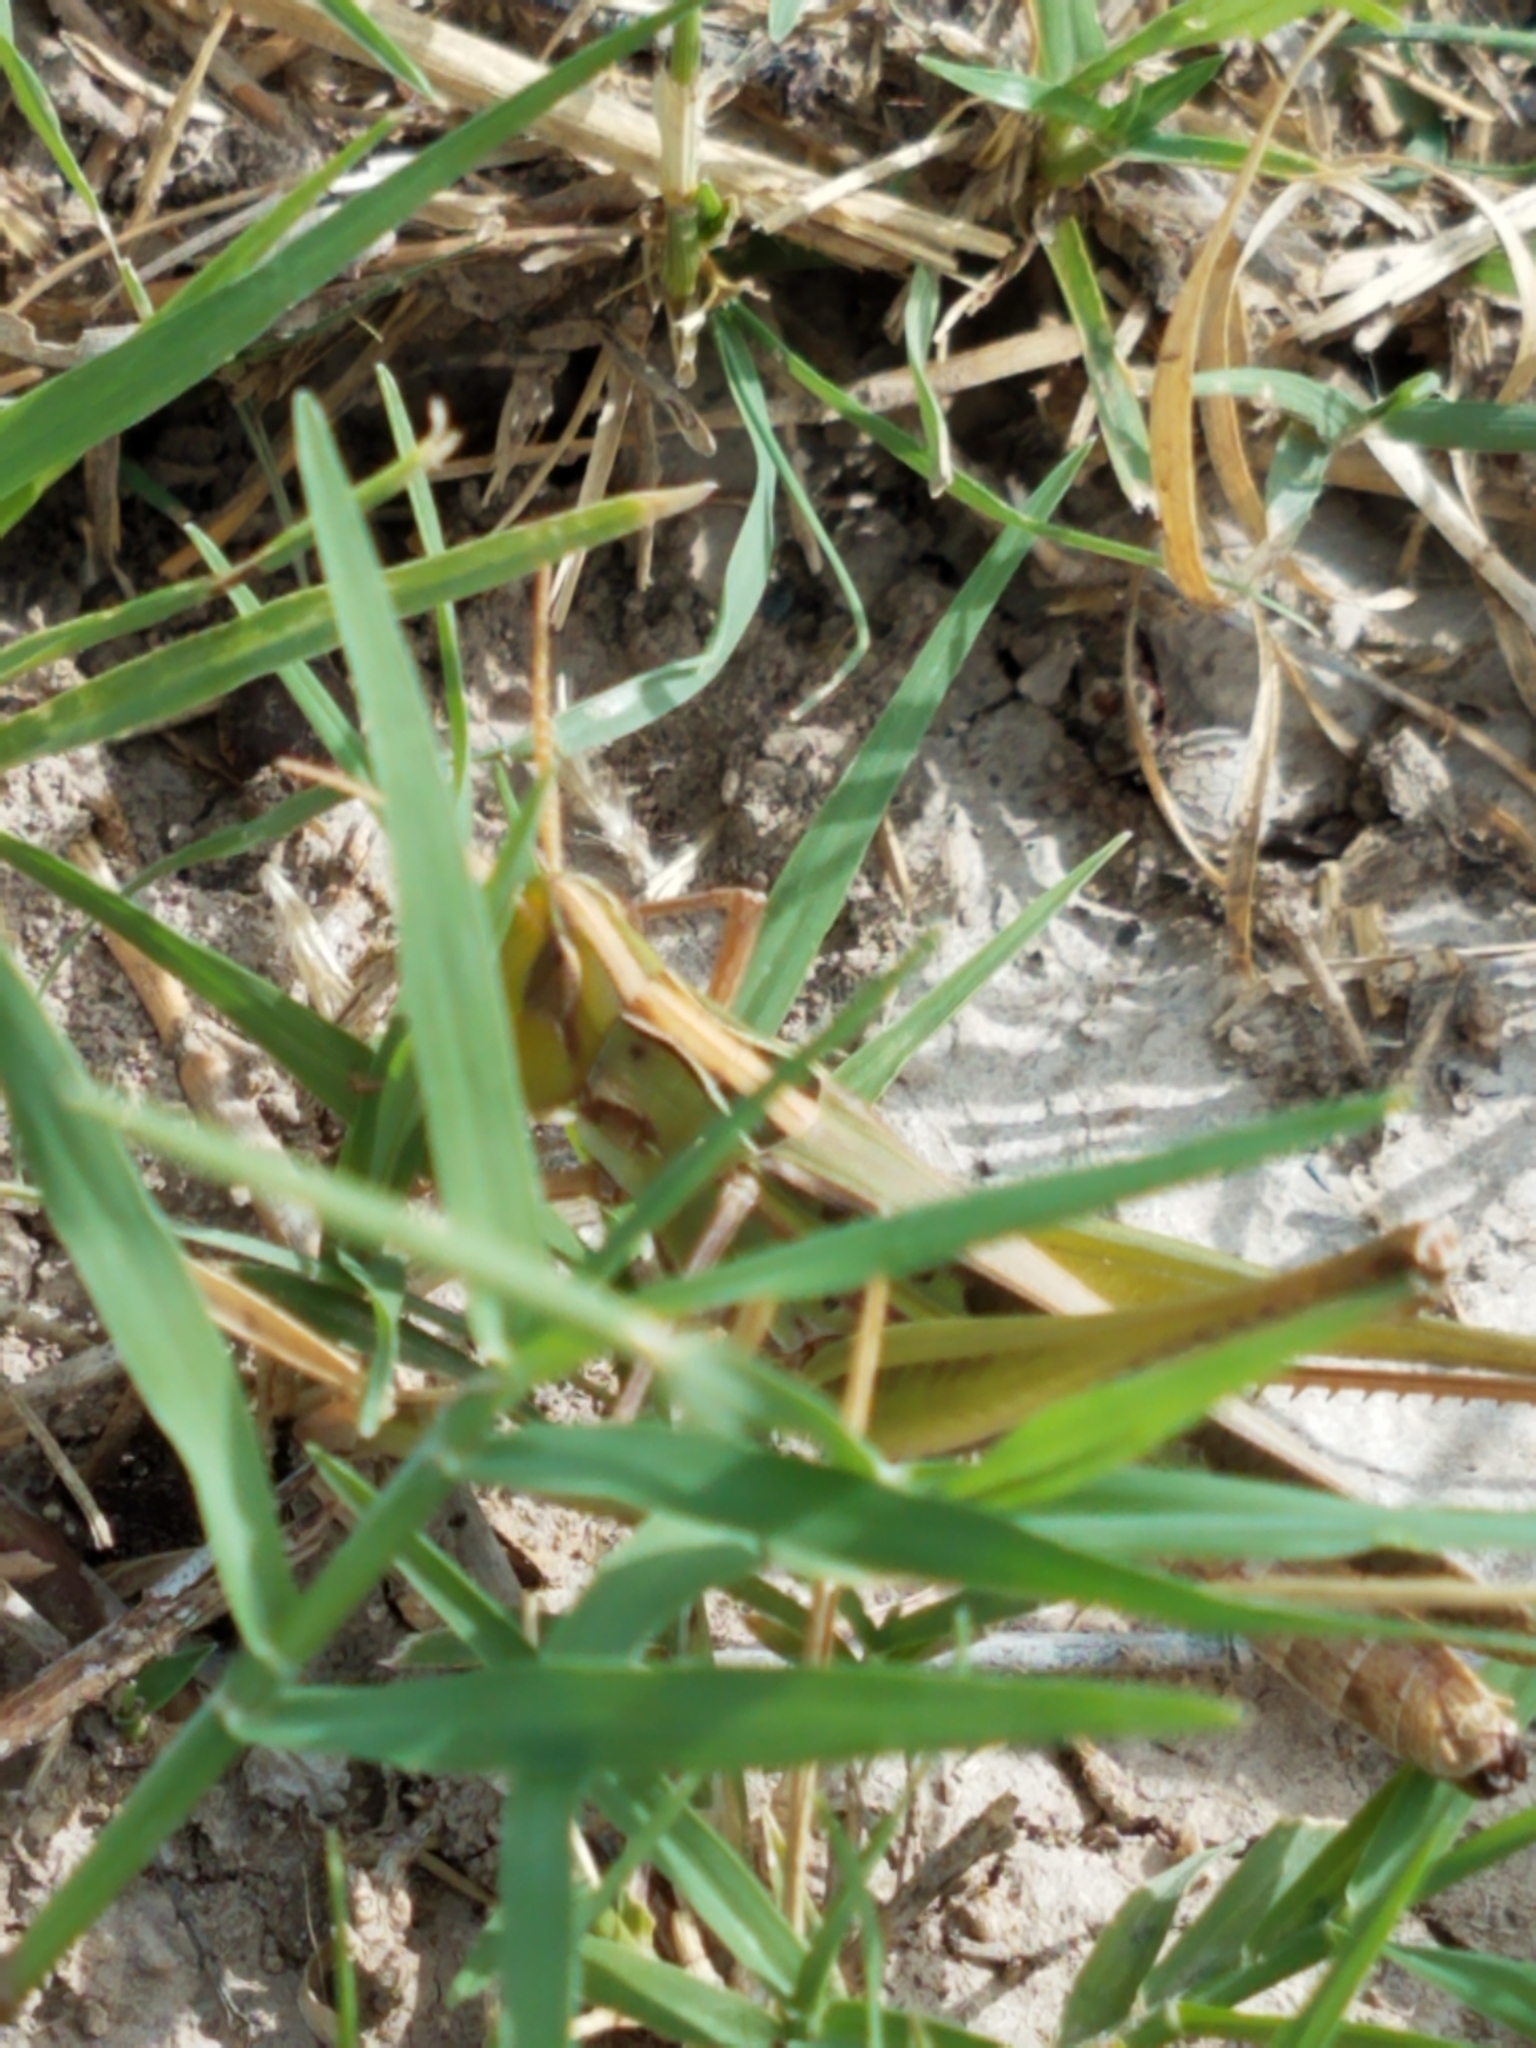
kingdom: Animalia
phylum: Arthropoda
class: Insecta
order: Orthoptera
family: Acrididae
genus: Syrbula
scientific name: Syrbula montezuma
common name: Montezuma's grasshopper
